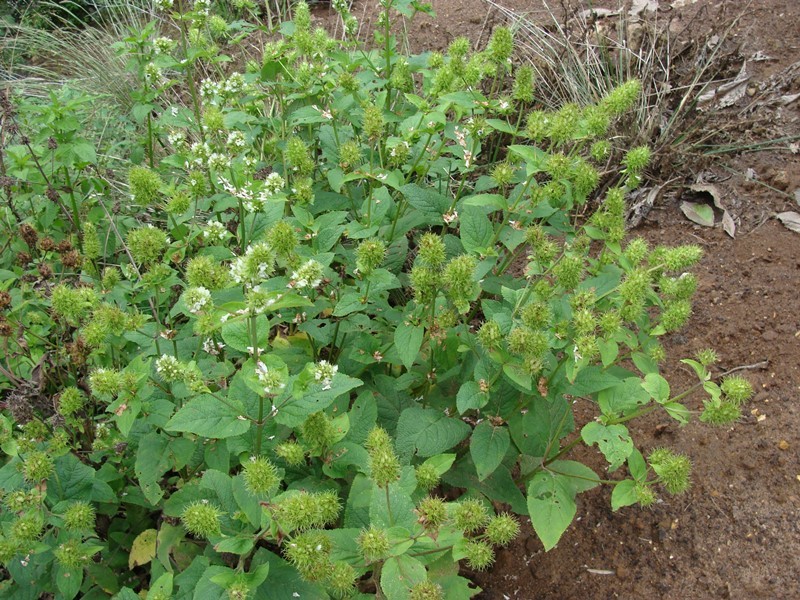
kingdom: Plantae
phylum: Tracheophyta
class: Magnoliopsida
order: Lamiales
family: Lamiaceae
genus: Lepechinia
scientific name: Lepechinia caulescens
